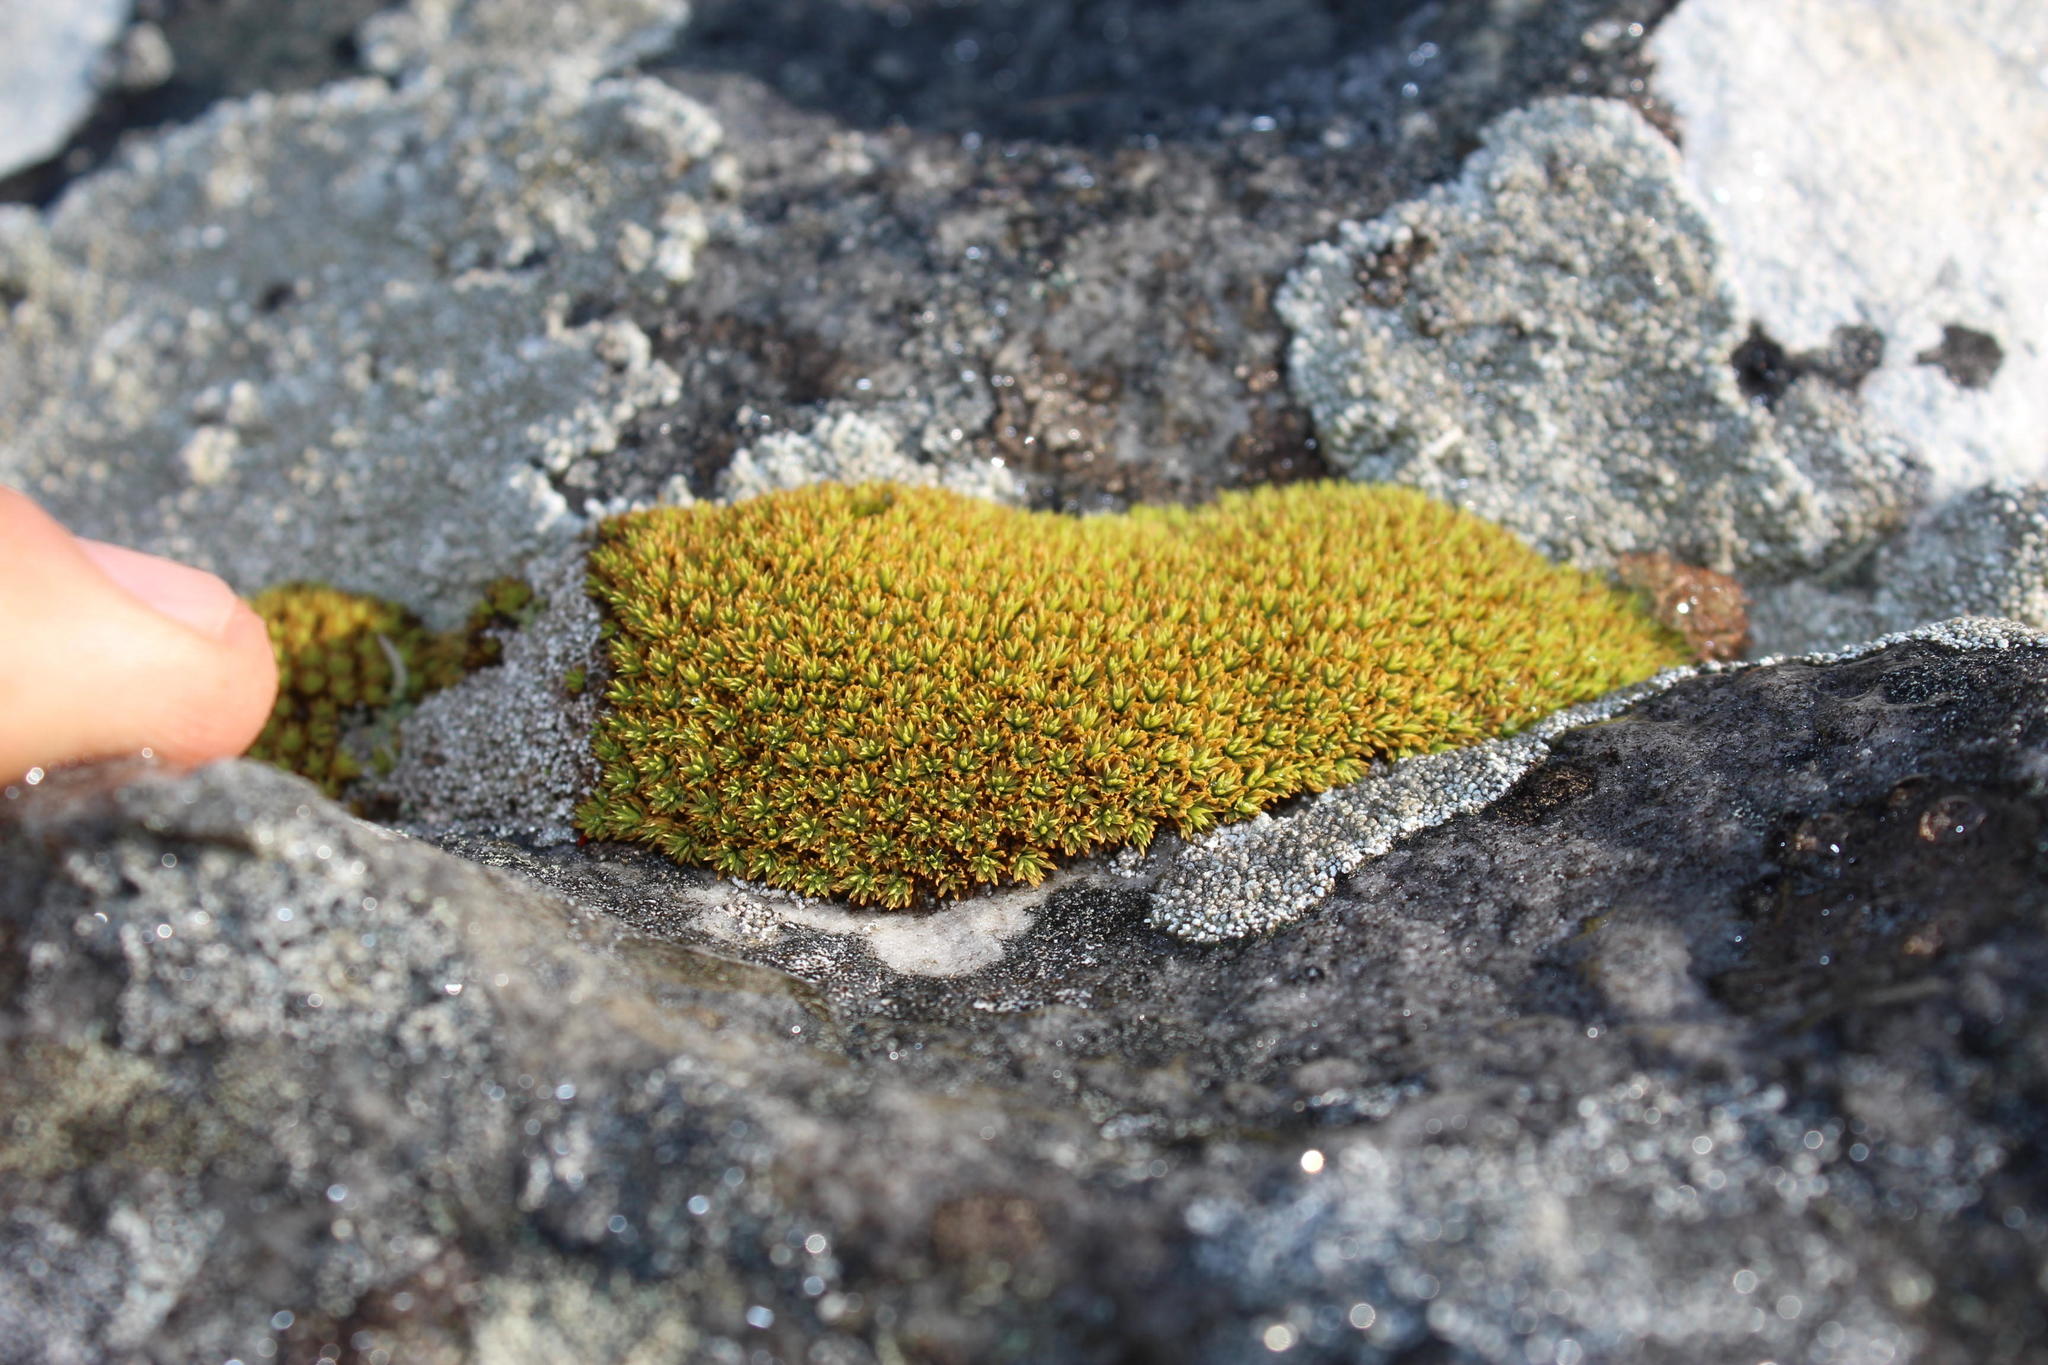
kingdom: Plantae
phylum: Bryophyta
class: Bryopsida
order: Dicranales
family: Hypodontiaceae
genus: Hypodontium
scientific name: Hypodontium pomiforme
